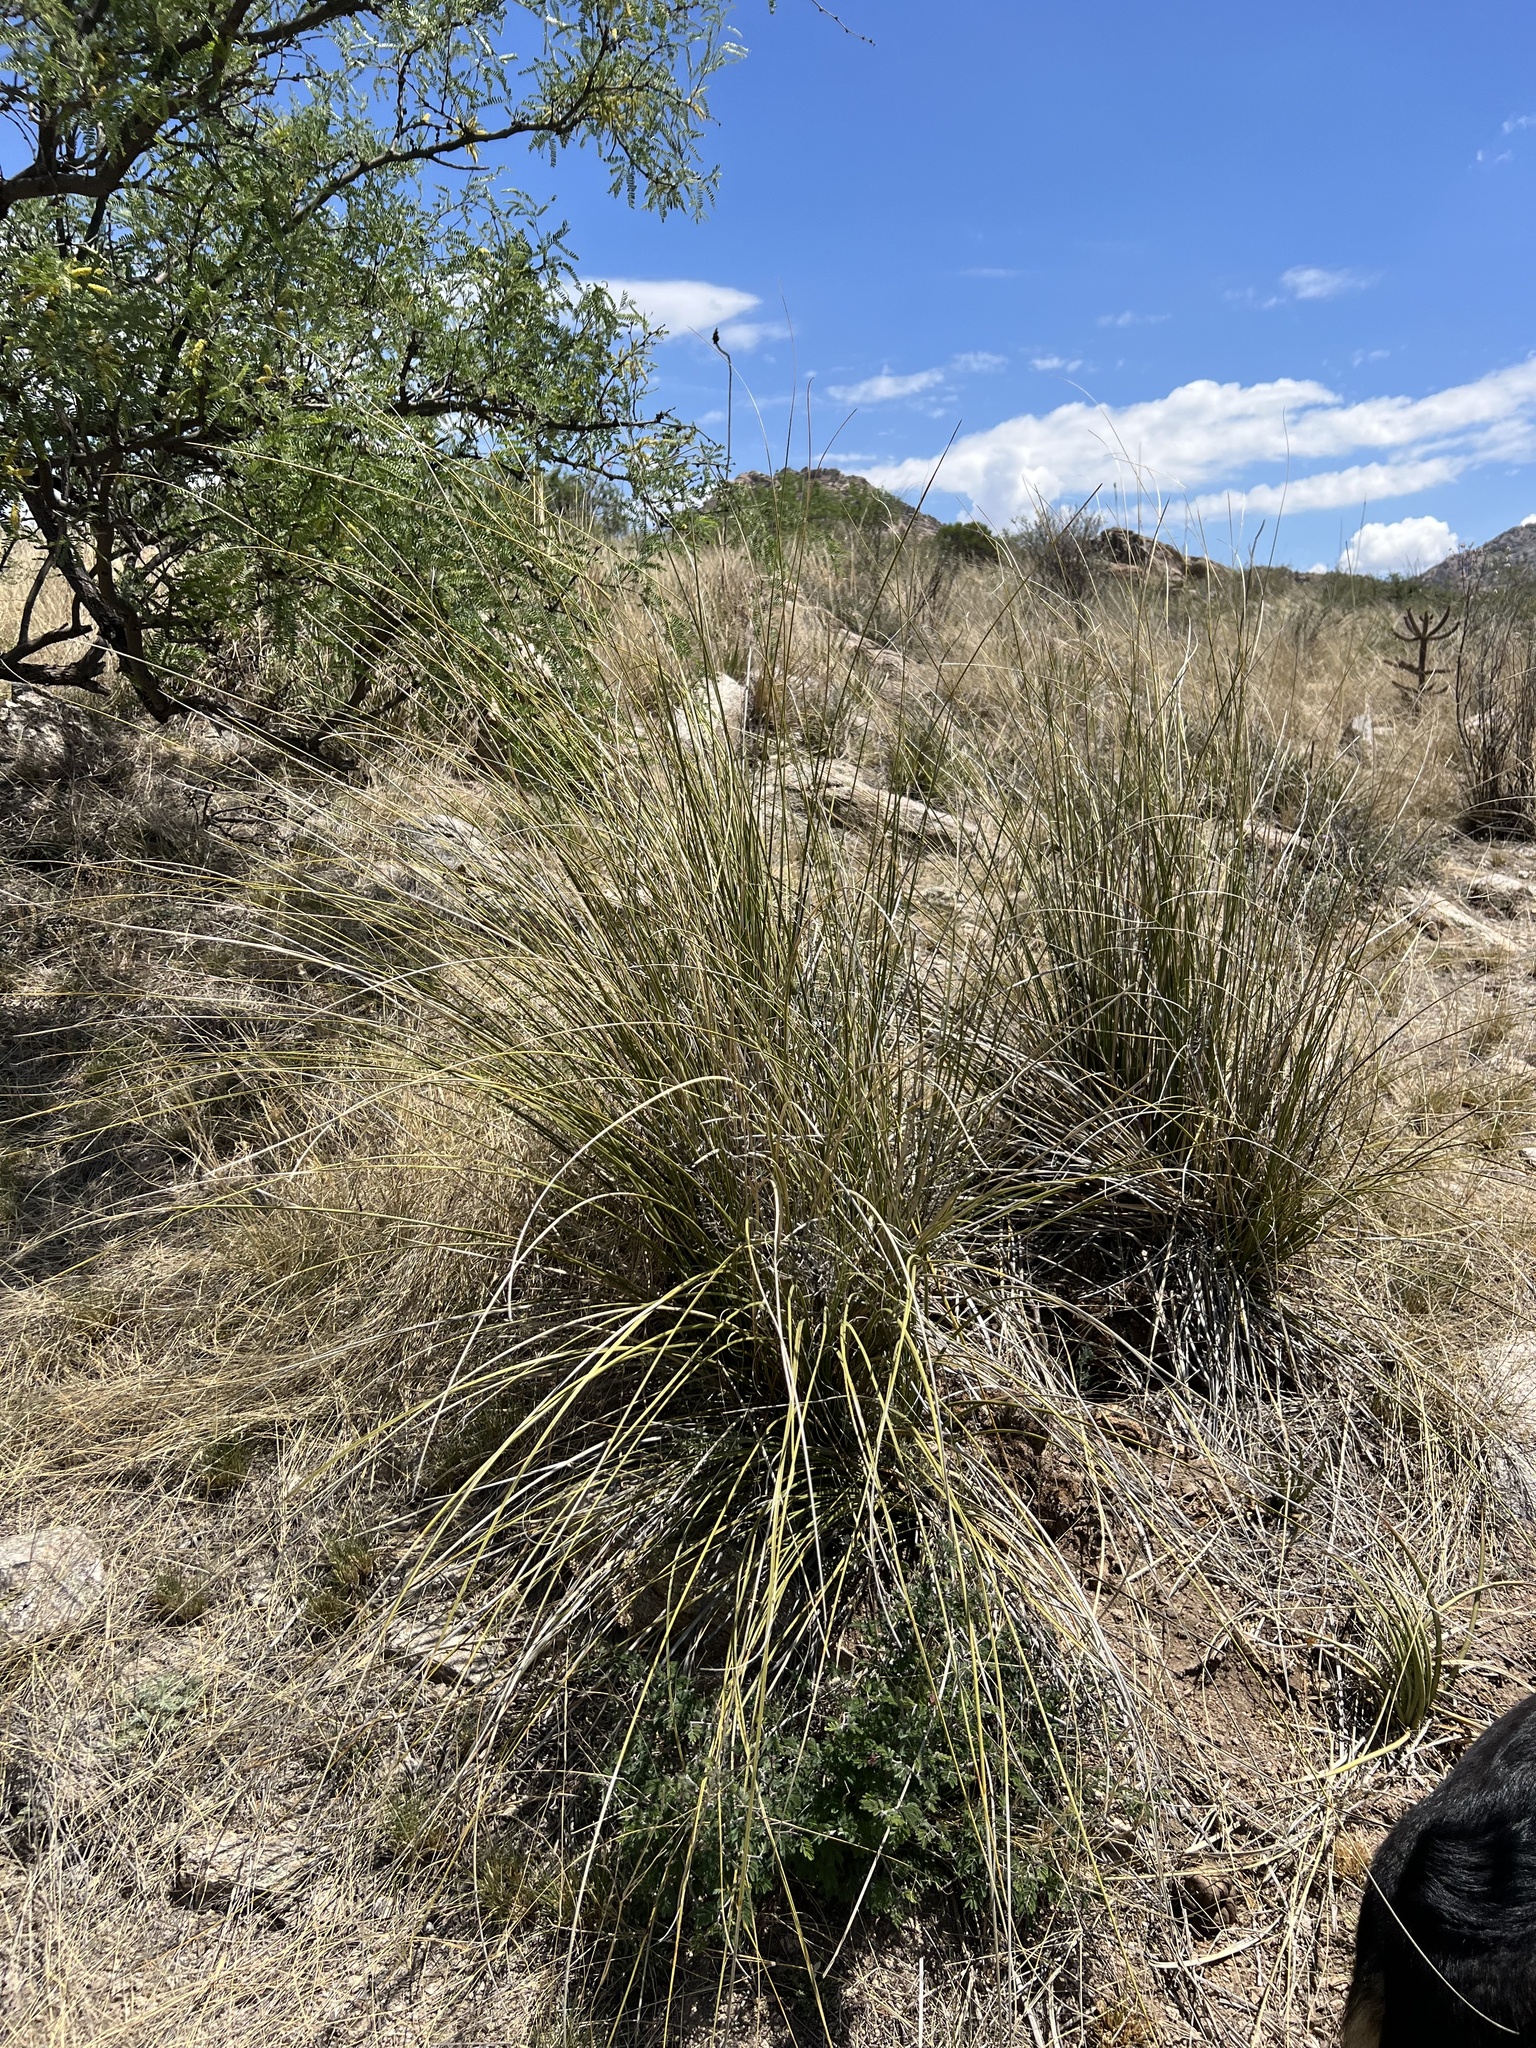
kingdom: Plantae
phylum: Tracheophyta
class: Liliopsida
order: Asparagales
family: Asparagaceae
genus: Nolina
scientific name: Nolina microcarpa
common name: Bear-grass
